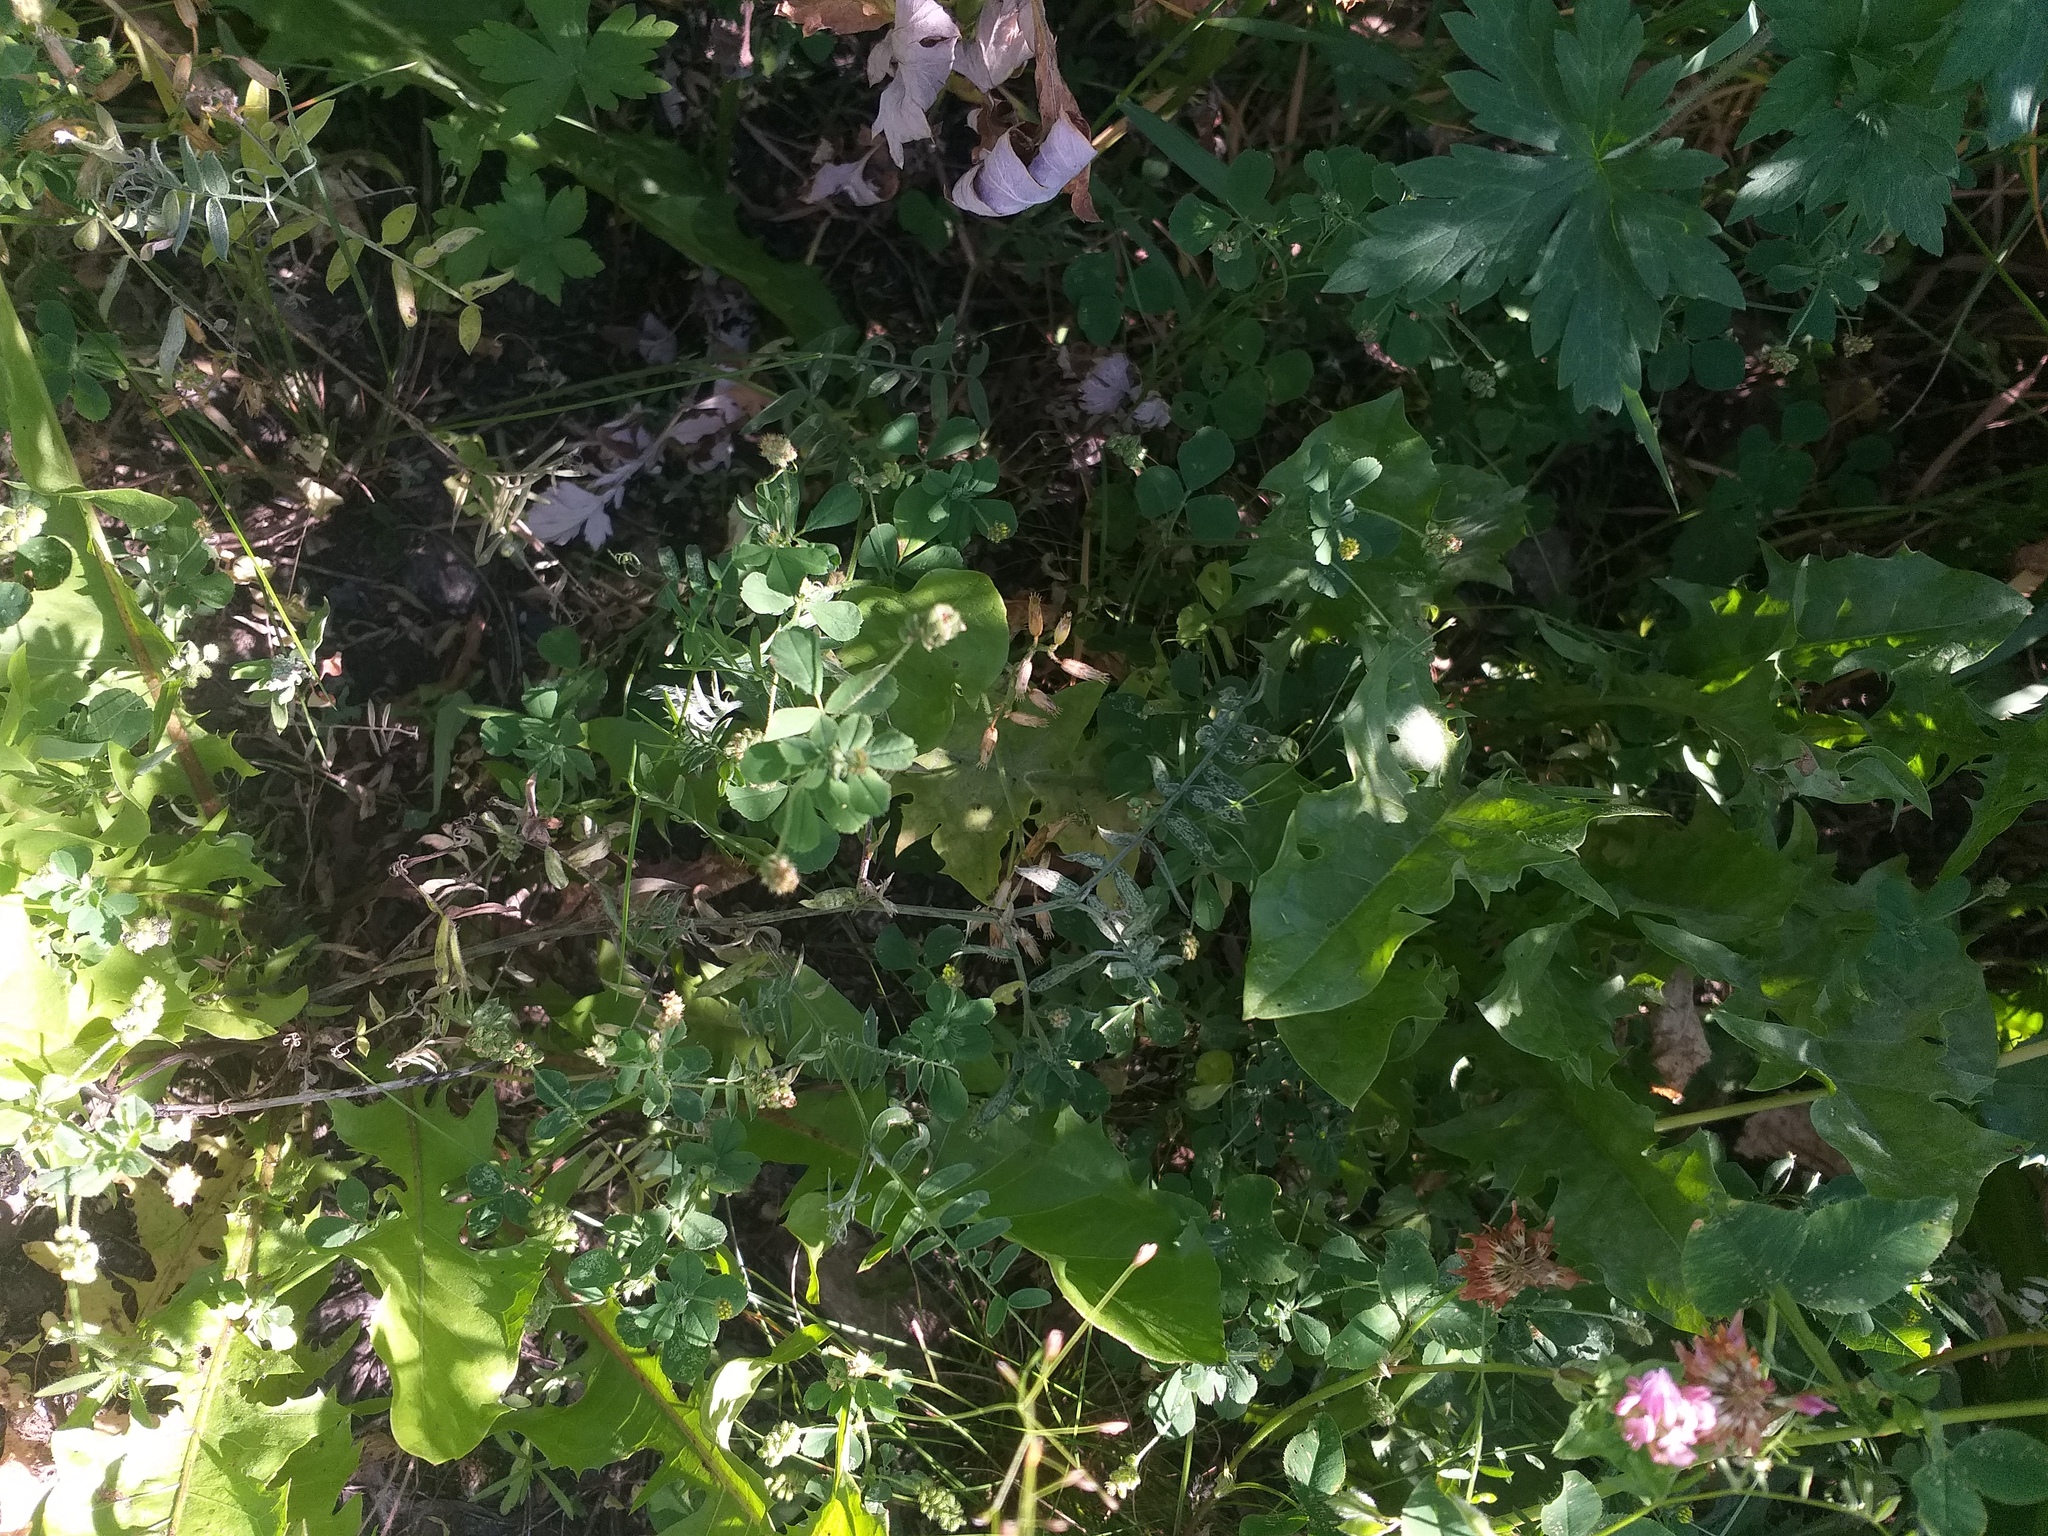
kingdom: Plantae
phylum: Tracheophyta
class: Magnoliopsida
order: Fabales
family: Fabaceae
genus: Medicago
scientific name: Medicago lupulina
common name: Black medick
